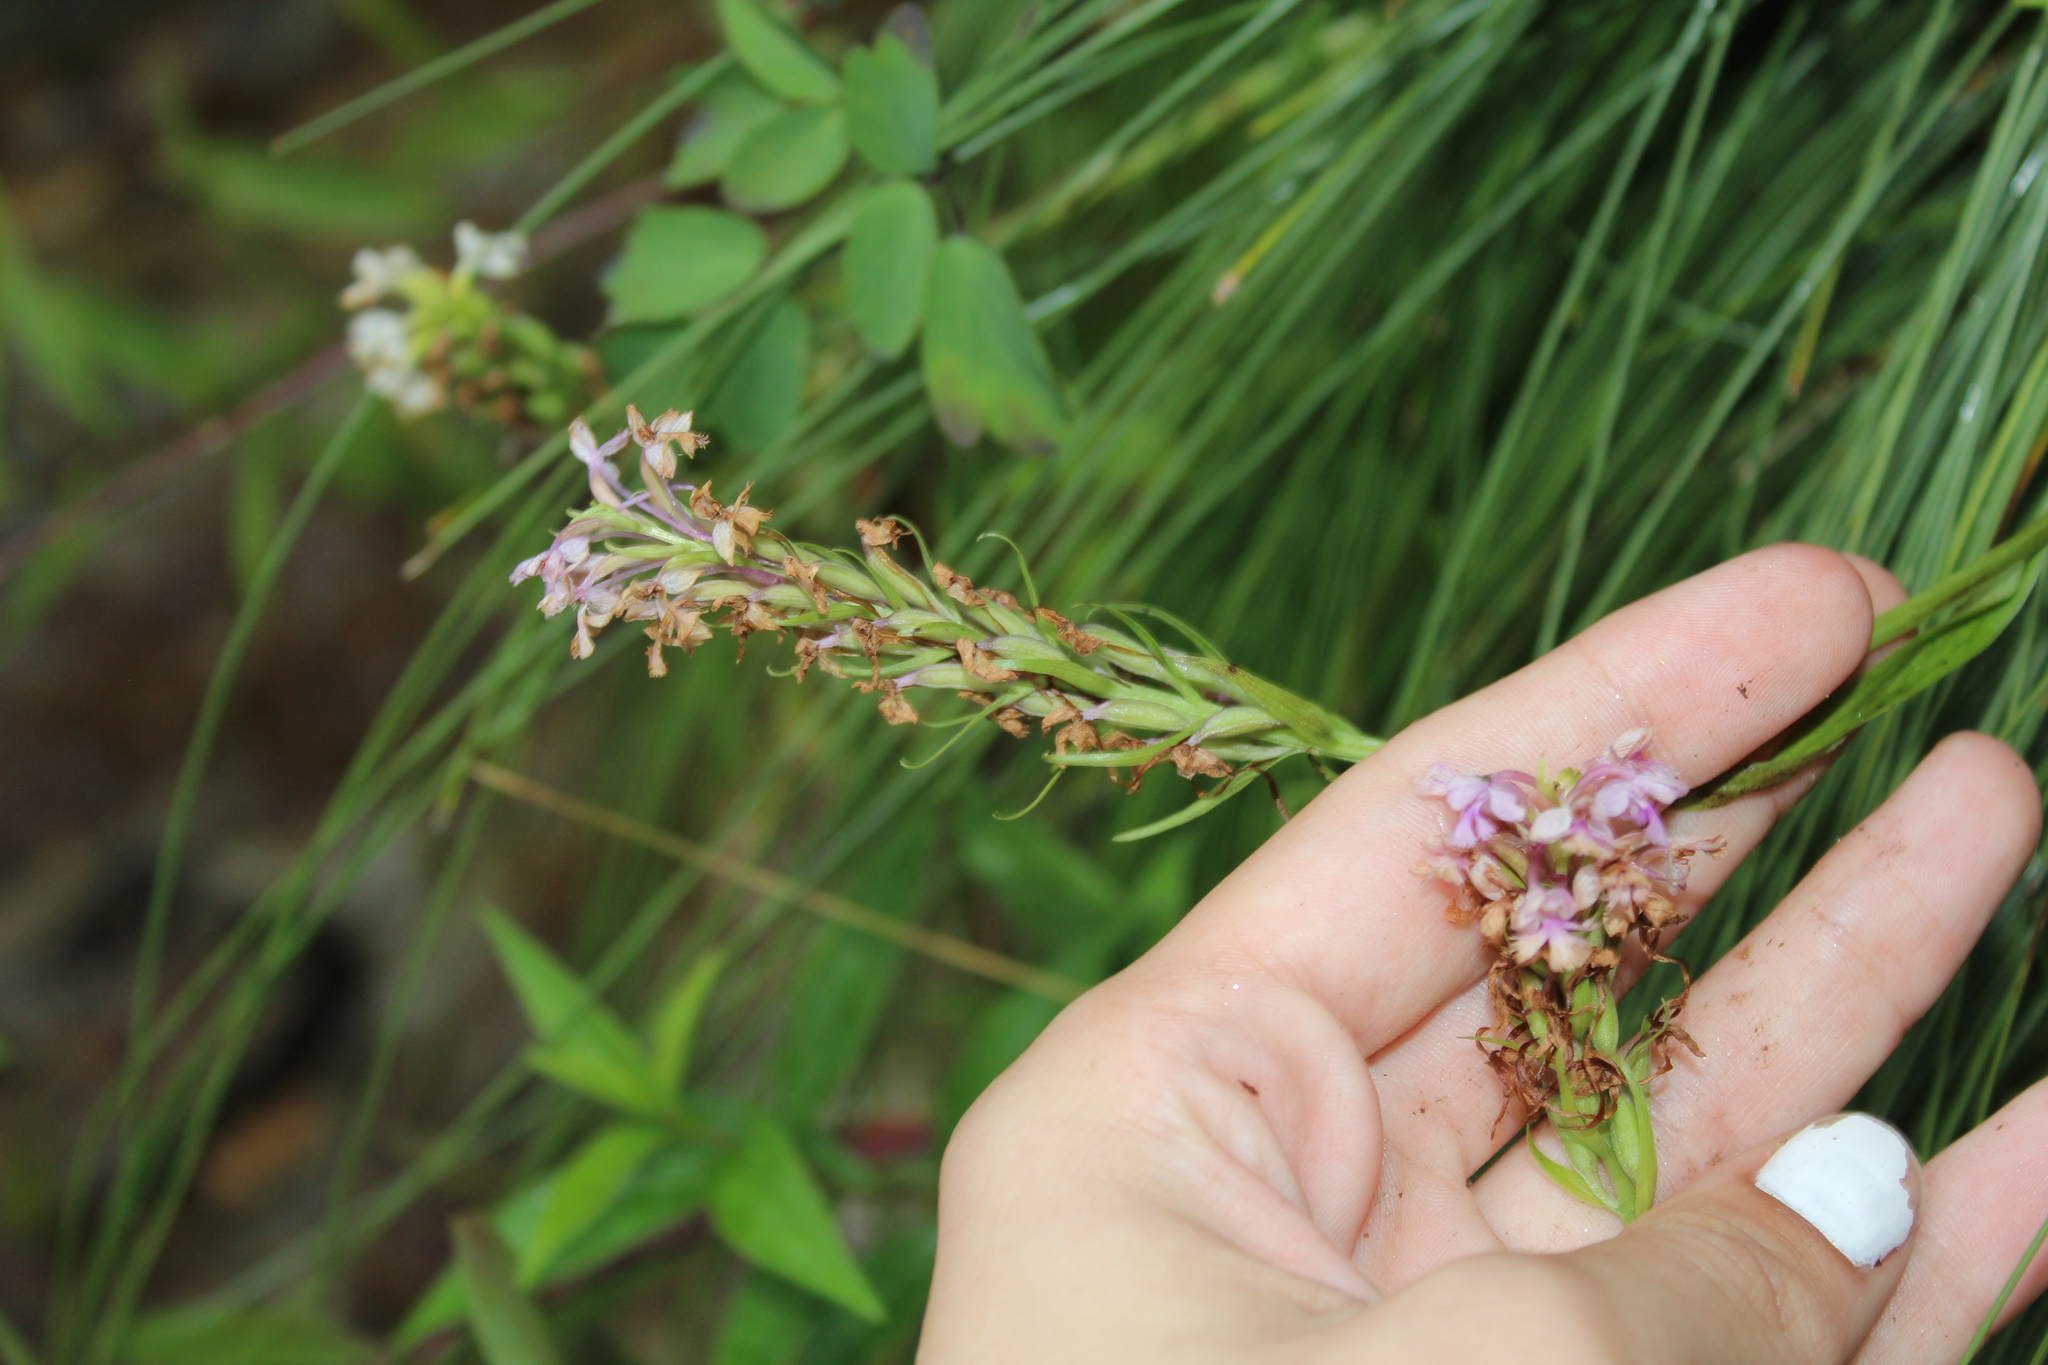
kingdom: Plantae
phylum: Tracheophyta
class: Liliopsida
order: Asparagales
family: Orchidaceae
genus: Platanthera
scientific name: Platanthera psycodes
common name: Lesser purple fringed orchid
